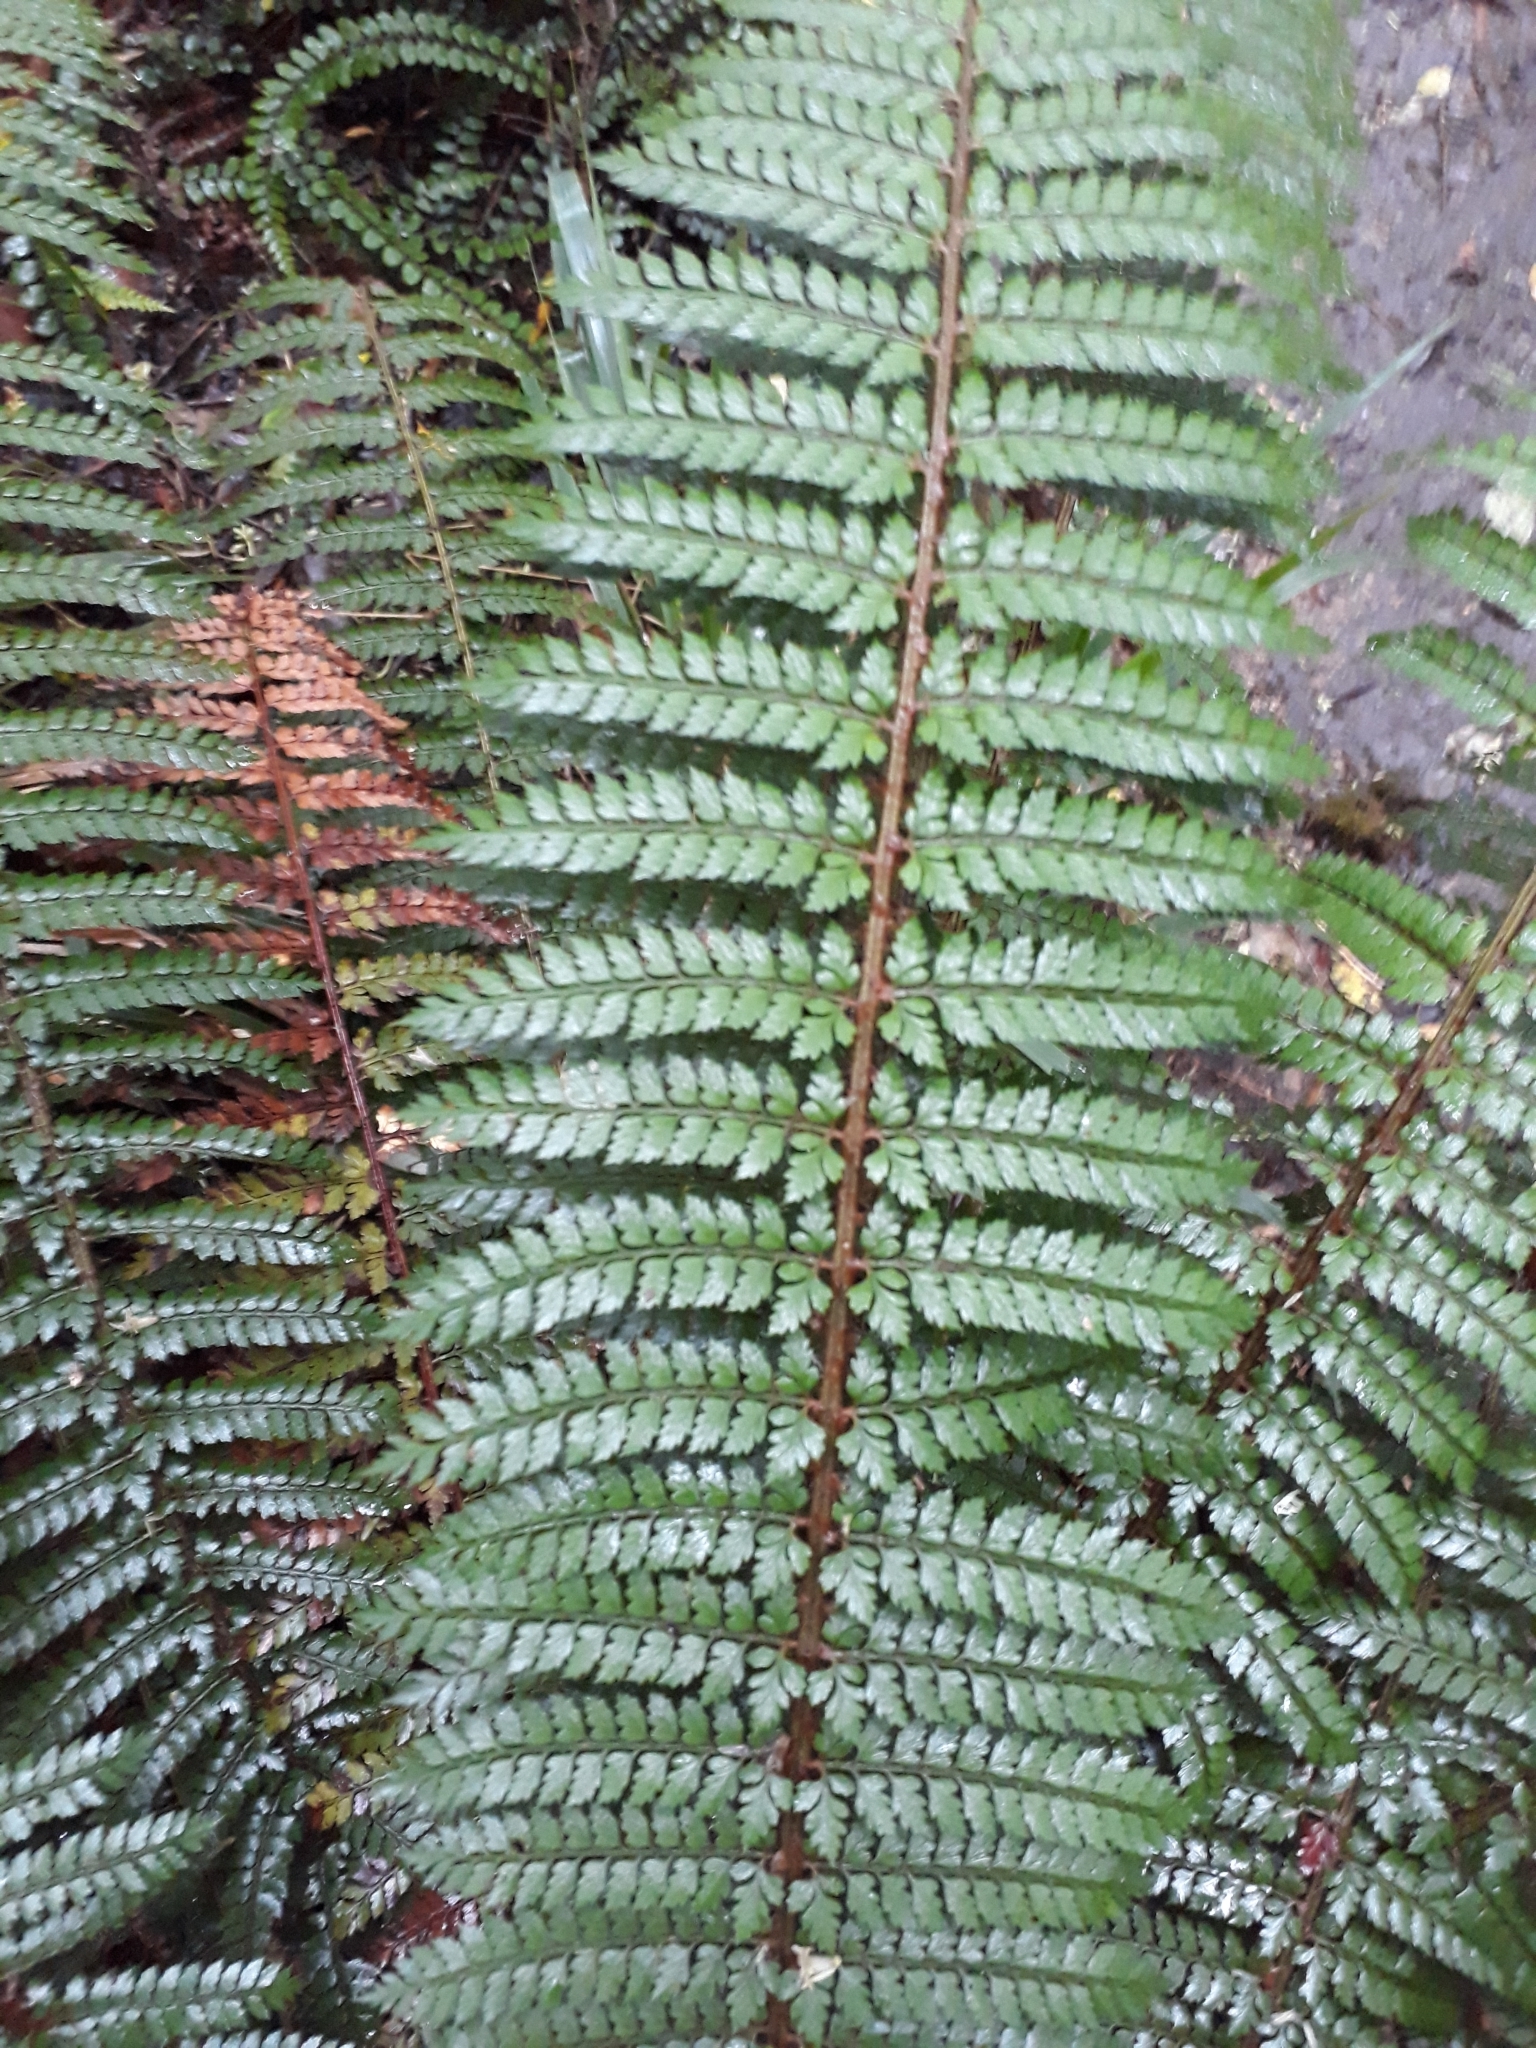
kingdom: Plantae
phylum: Tracheophyta
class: Polypodiopsida
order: Polypodiales
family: Dryopteridaceae
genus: Polystichum
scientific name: Polystichum vestitum
